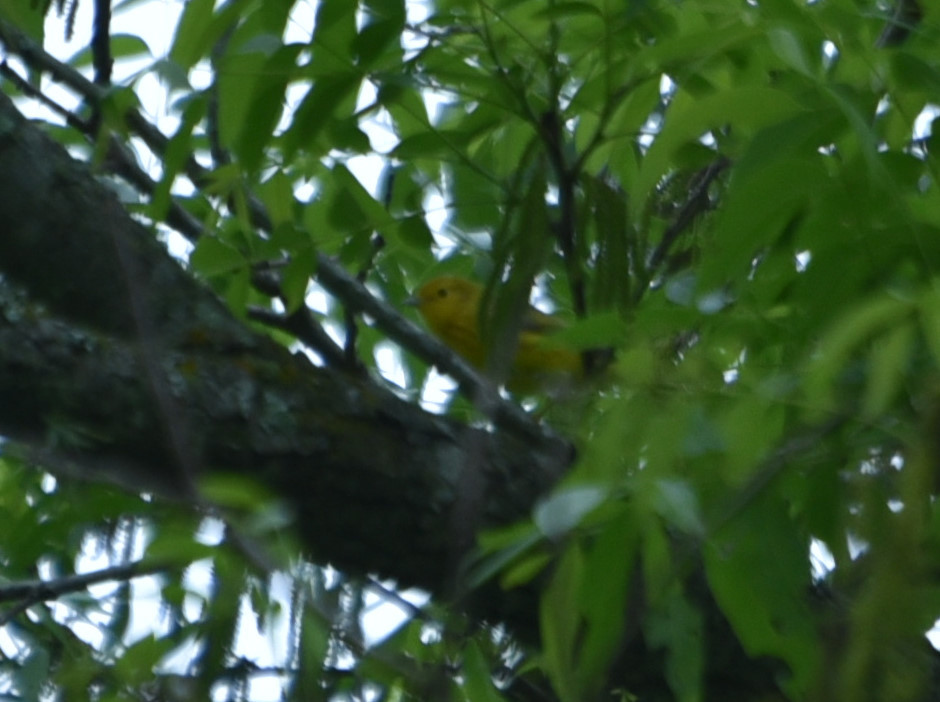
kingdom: Animalia
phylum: Chordata
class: Aves
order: Passeriformes
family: Parulidae
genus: Setophaga
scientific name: Setophaga petechia
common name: Yellow warbler
